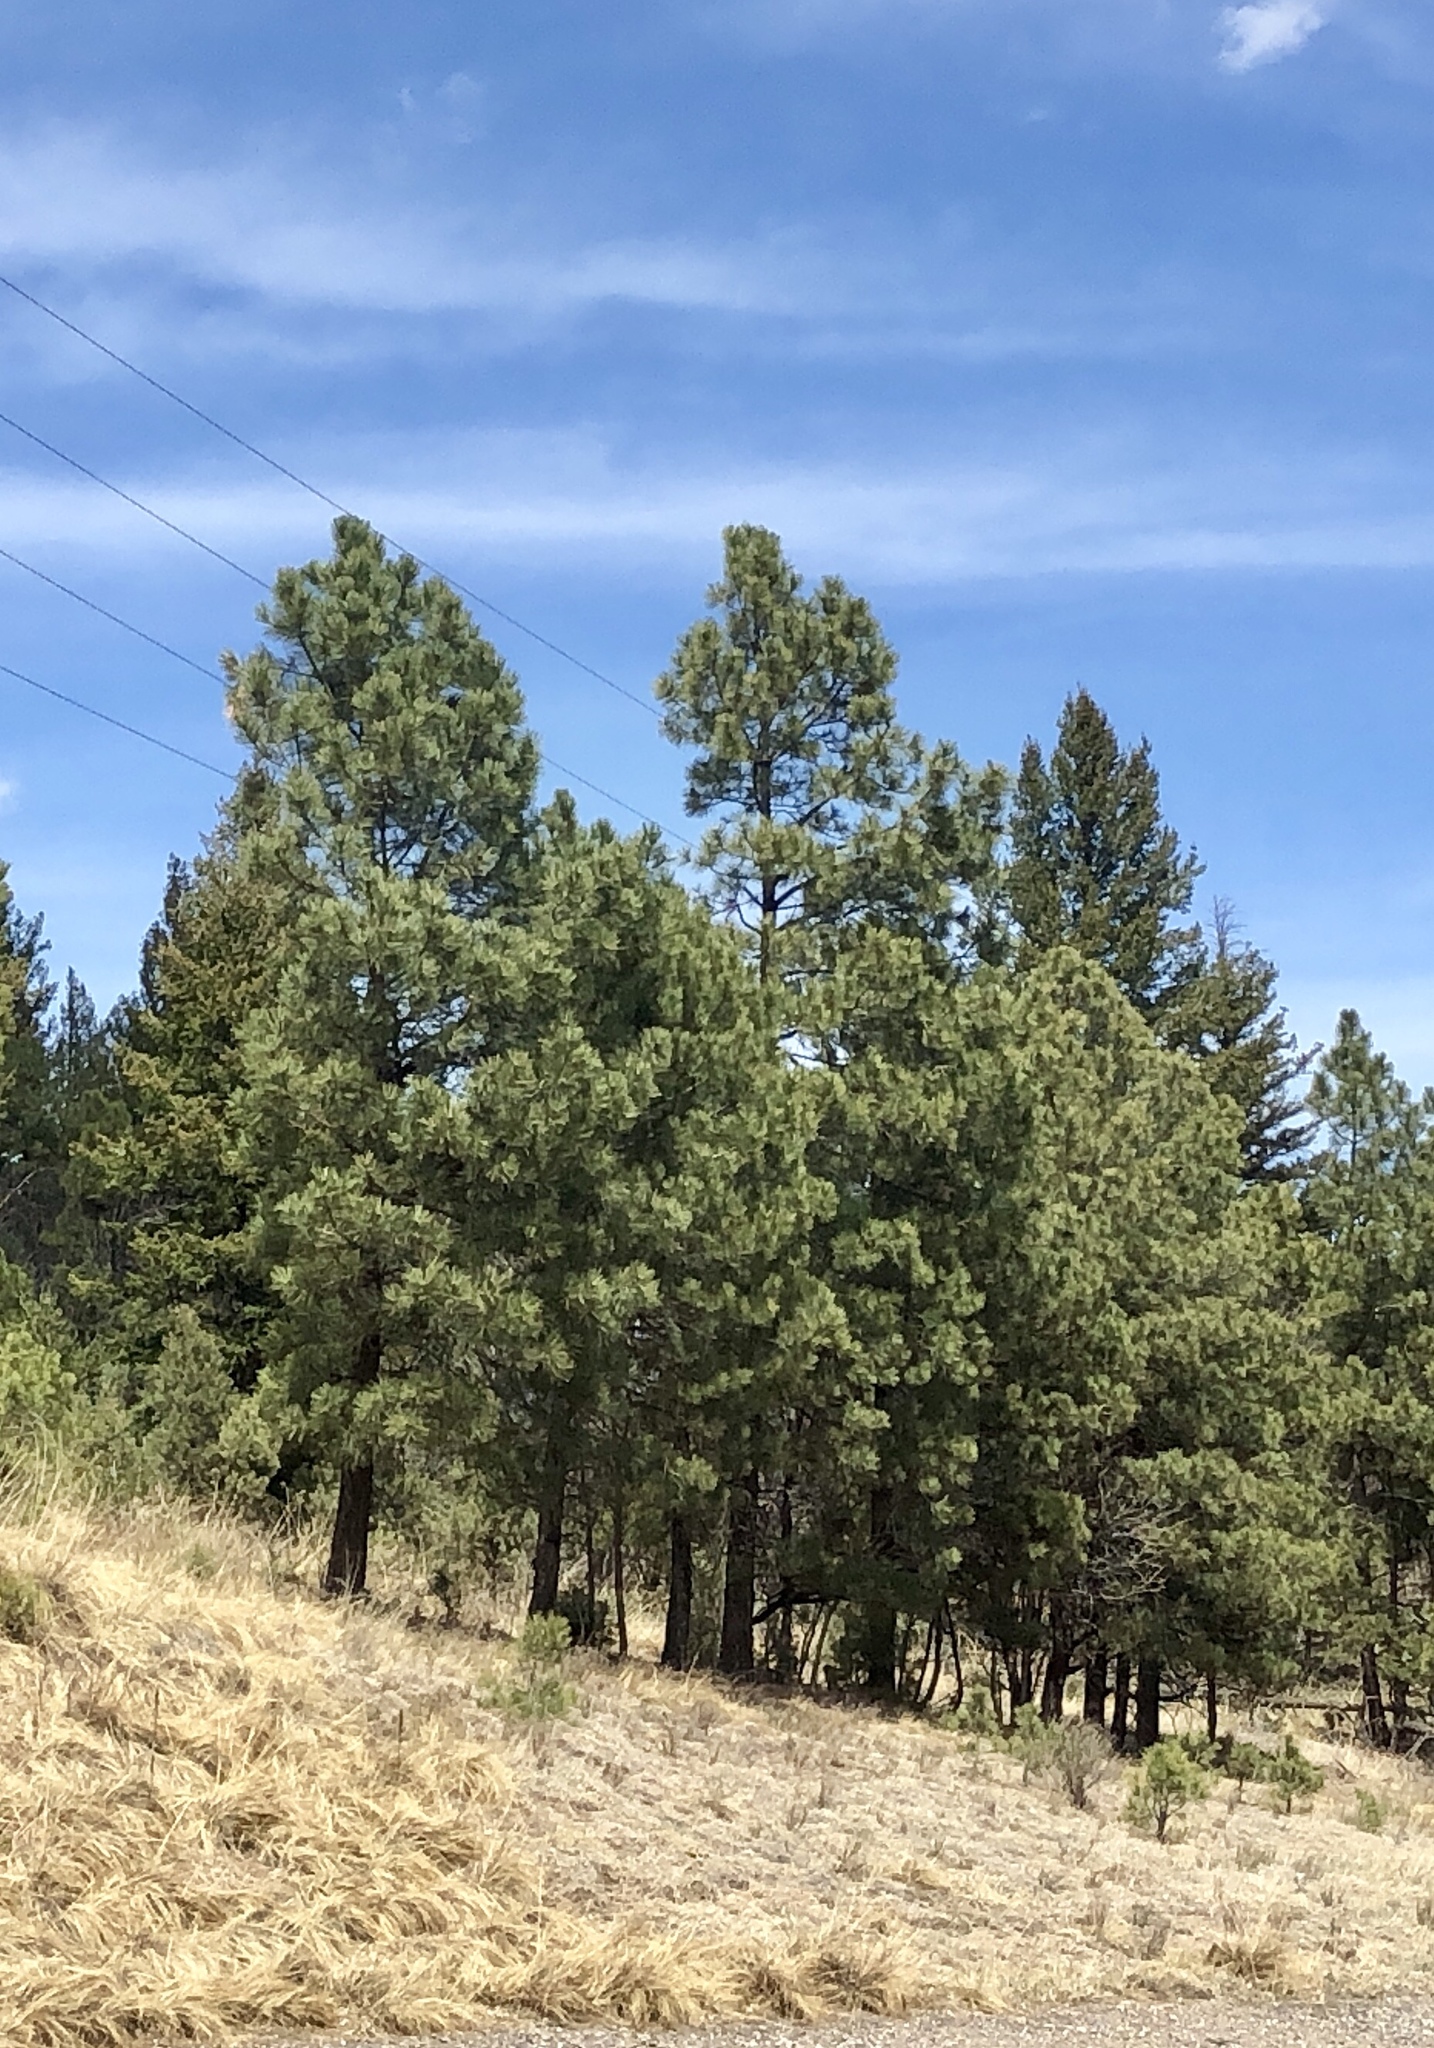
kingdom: Plantae
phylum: Tracheophyta
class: Pinopsida
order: Pinales
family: Pinaceae
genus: Pinus
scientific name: Pinus ponderosa
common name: Western yellow-pine
